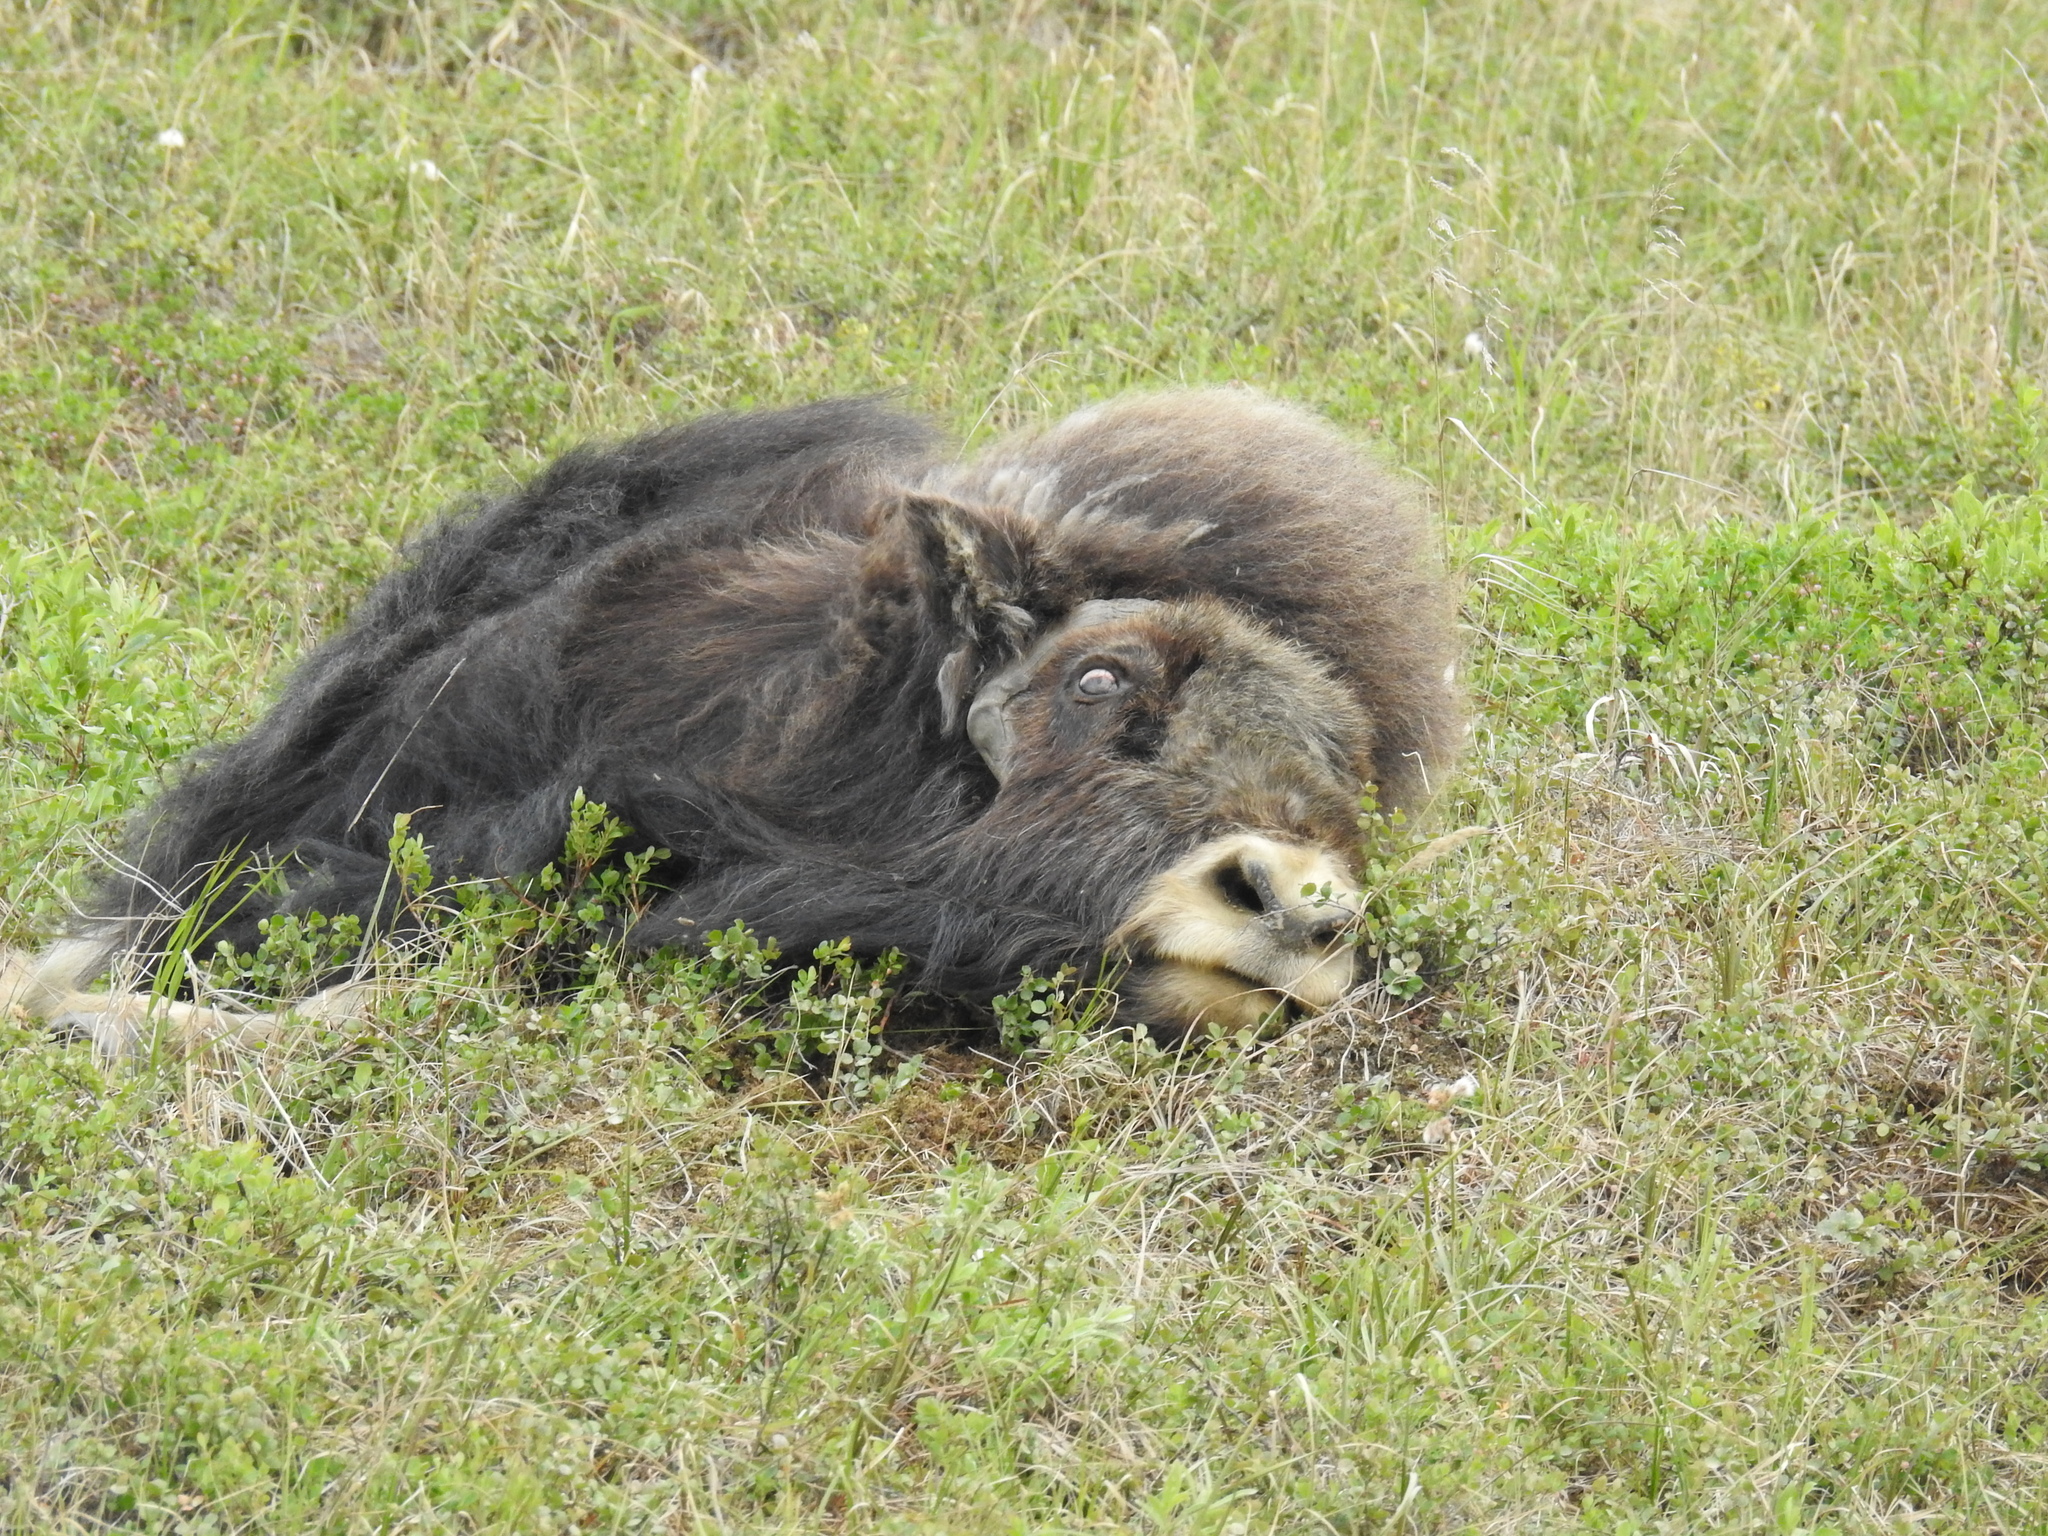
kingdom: Animalia
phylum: Chordata
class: Mammalia
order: Artiodactyla
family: Bovidae
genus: Ovibos
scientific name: Ovibos moschatus
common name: Muskox
